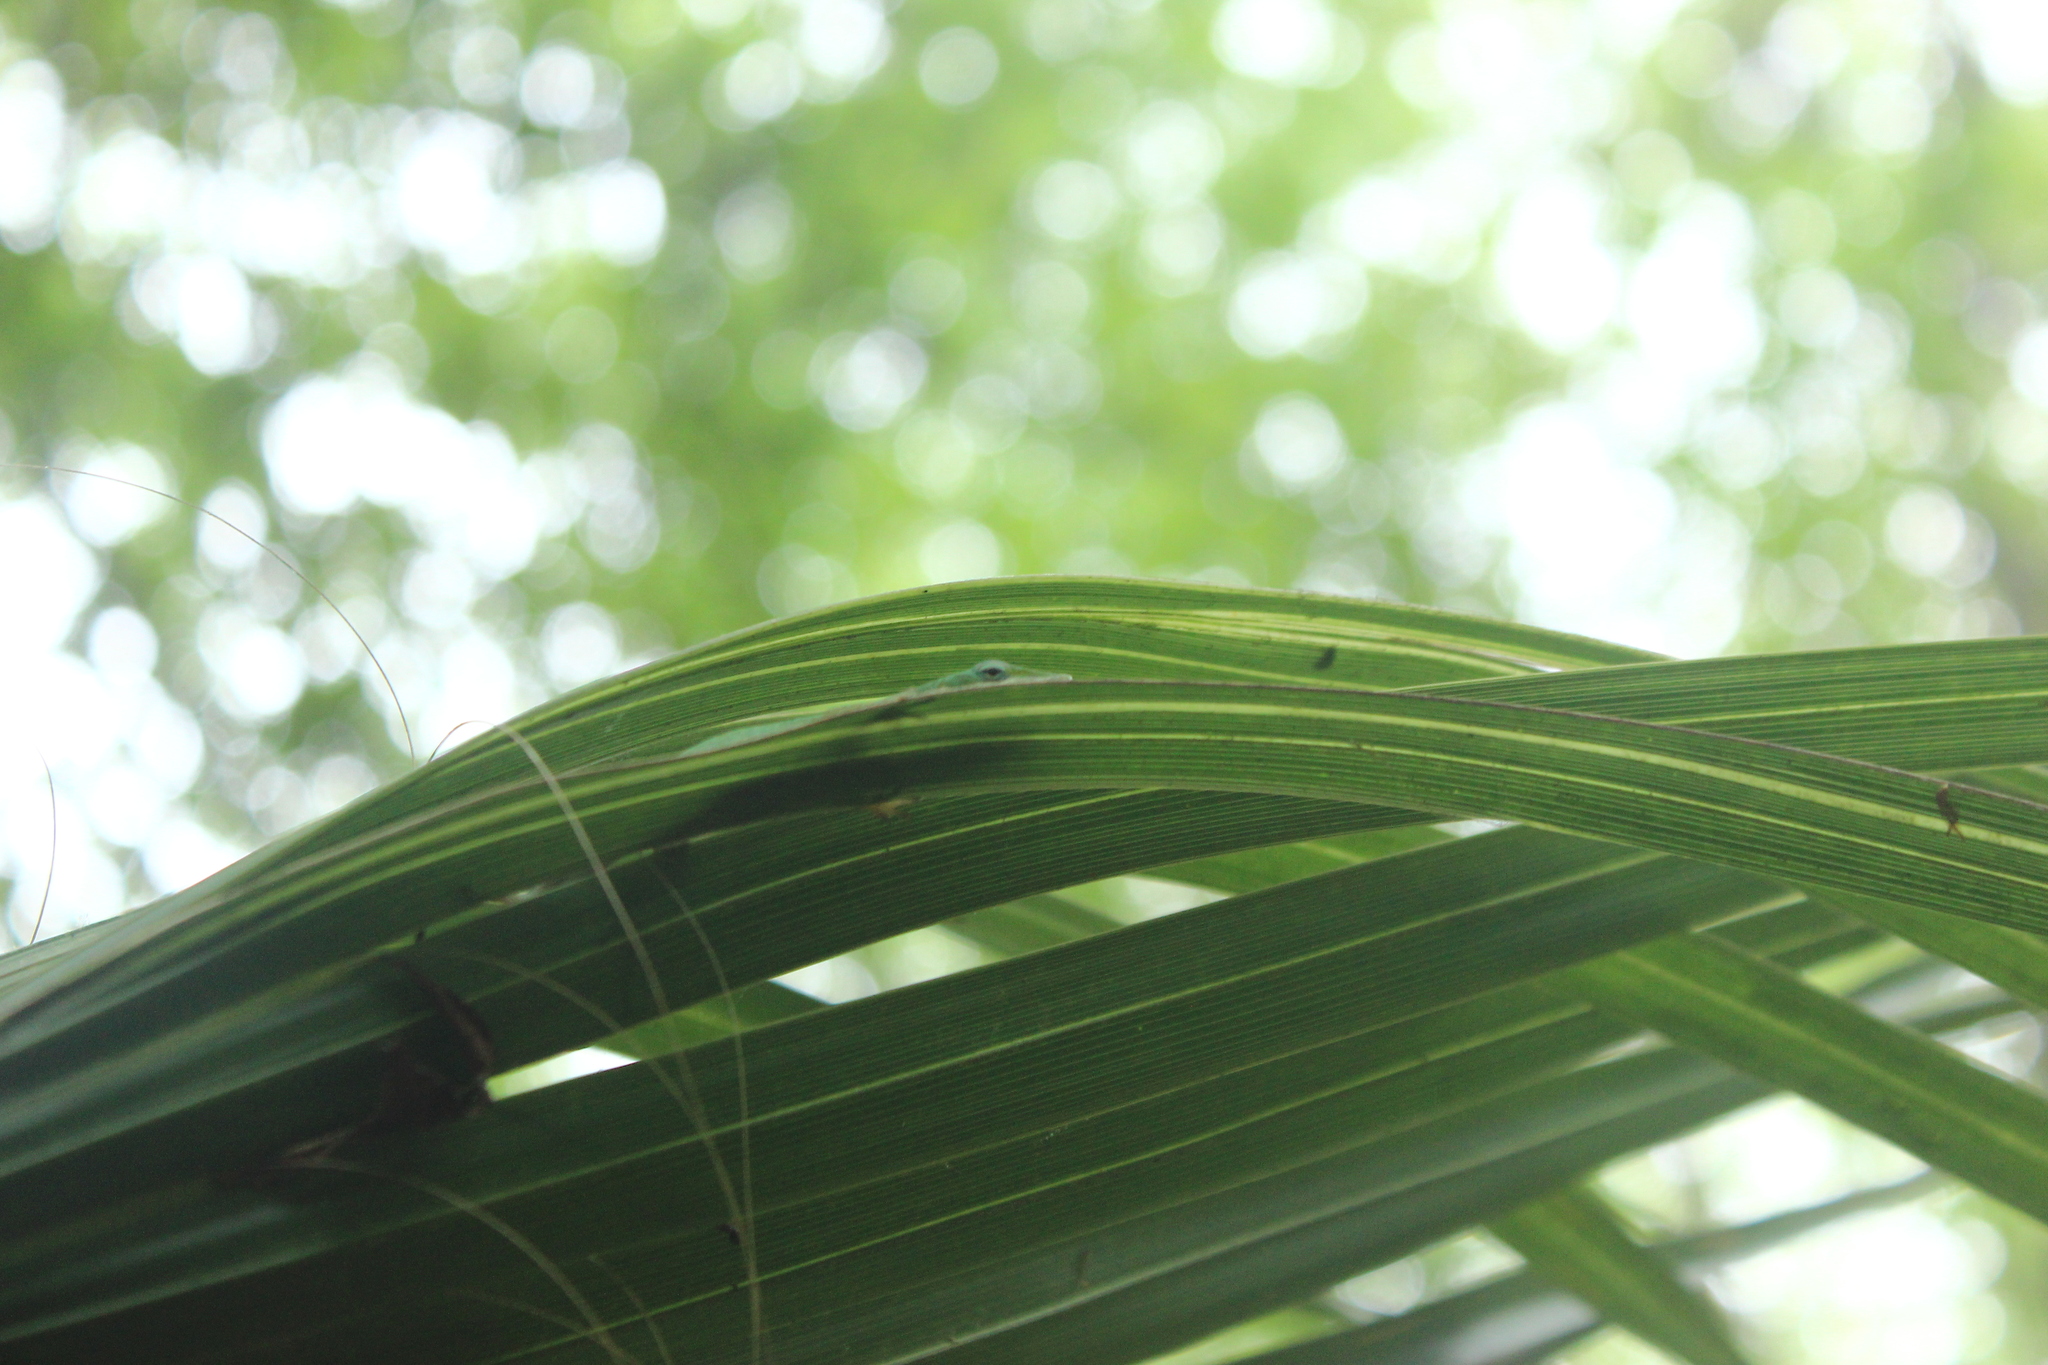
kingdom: Animalia
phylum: Chordata
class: Squamata
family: Dactyloidae
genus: Anolis
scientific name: Anolis carolinensis
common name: Green anole
